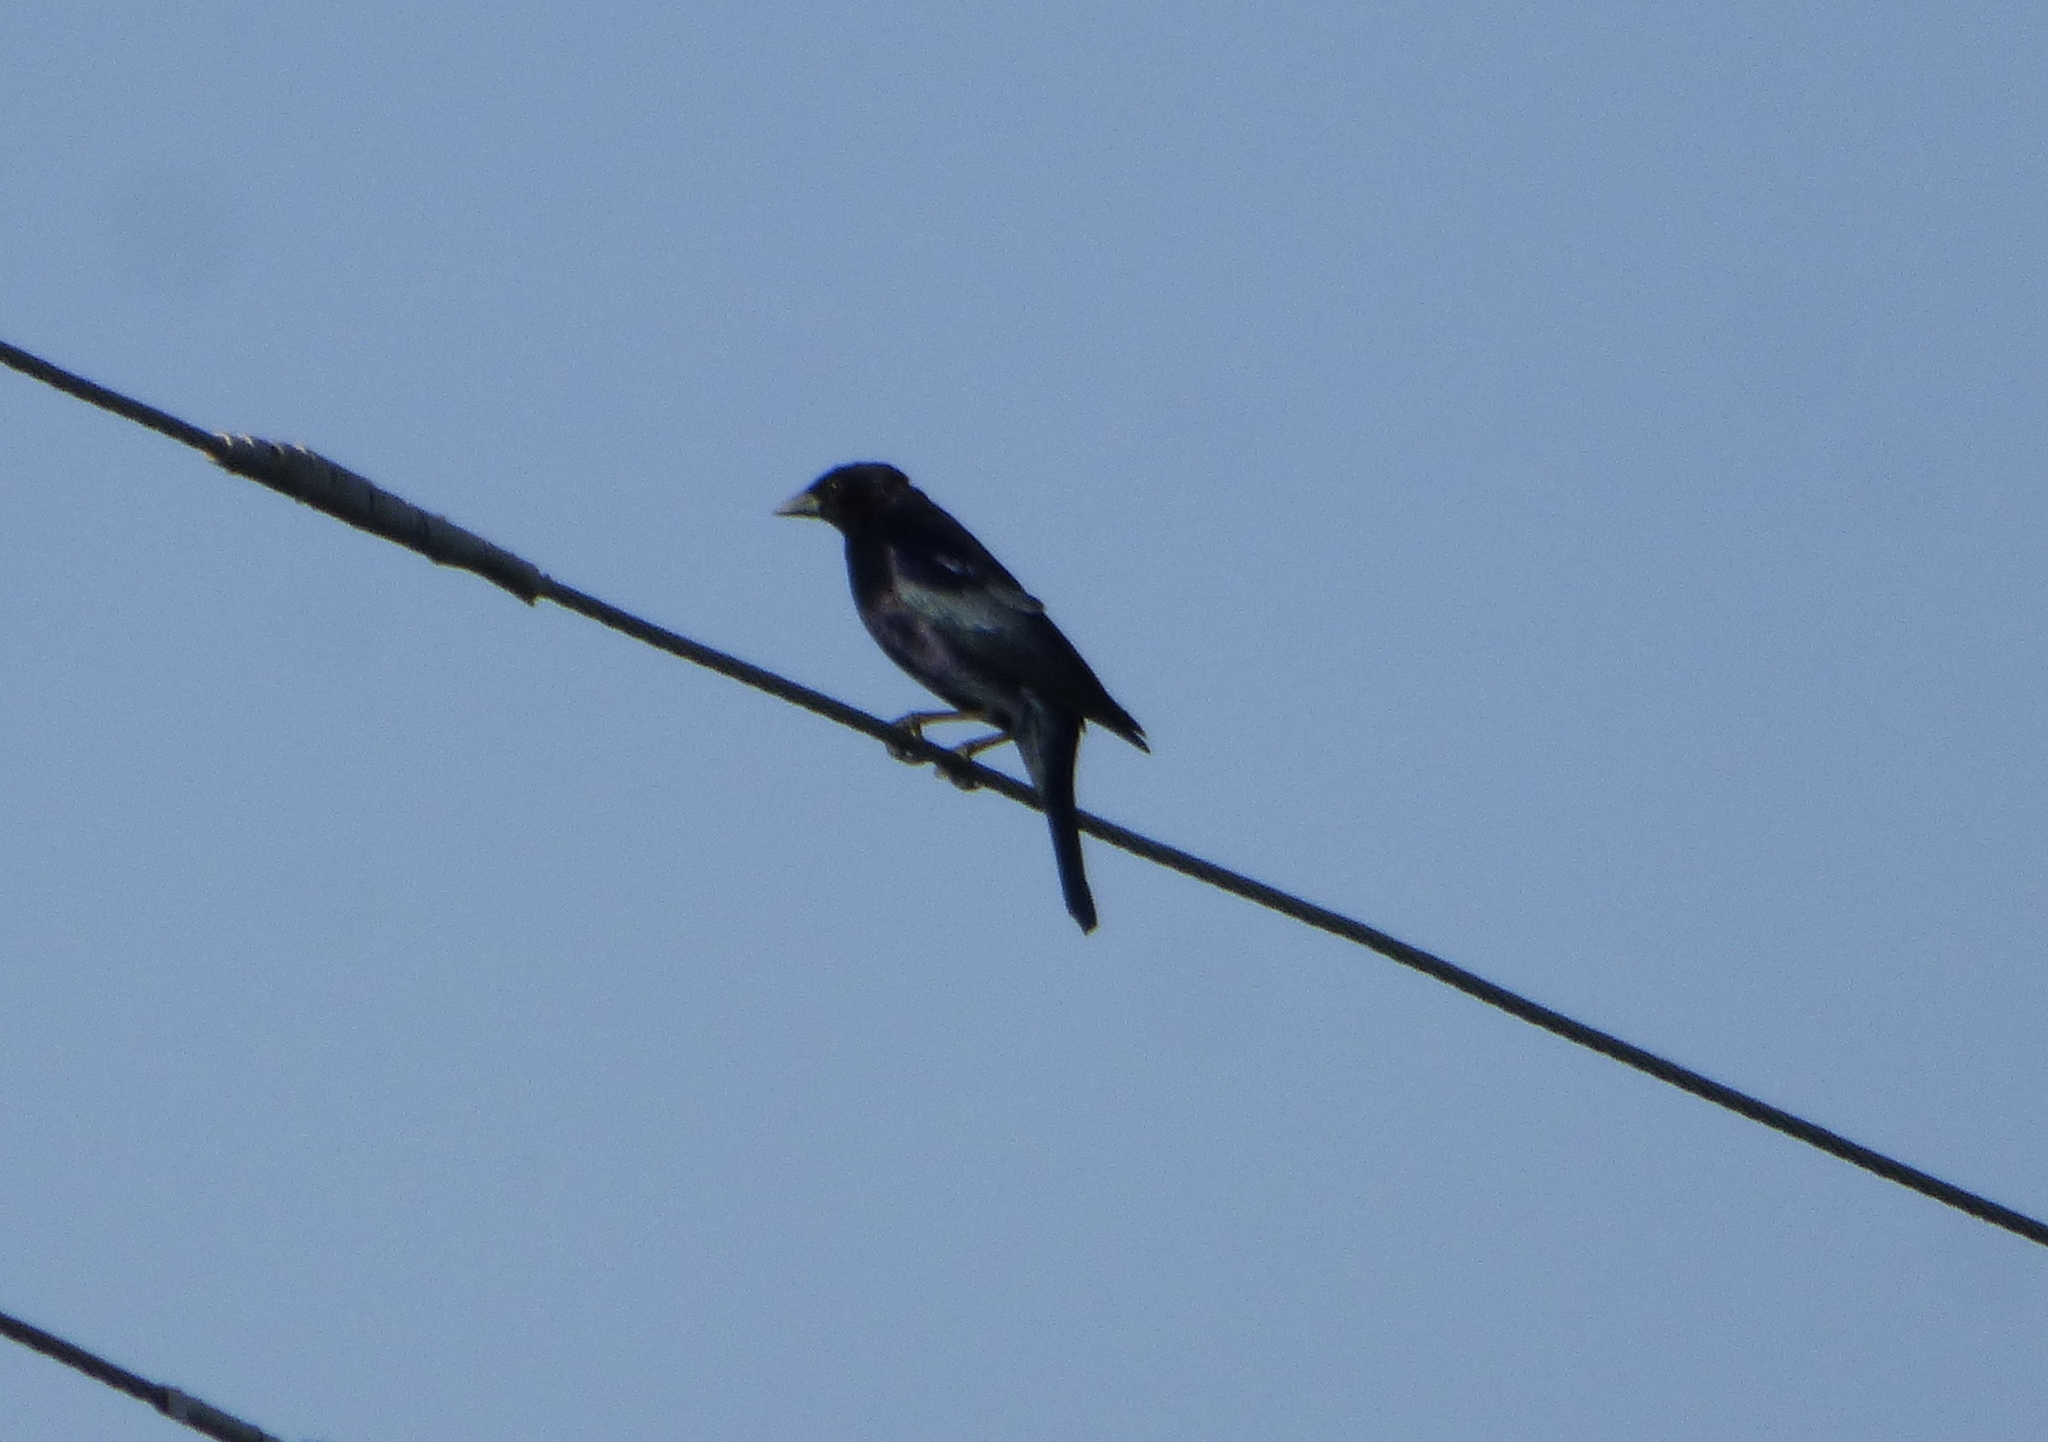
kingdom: Animalia
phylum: Chordata
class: Aves
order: Passeriformes
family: Icteridae
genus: Molothrus
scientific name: Molothrus bonariensis
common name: Shiny cowbird
